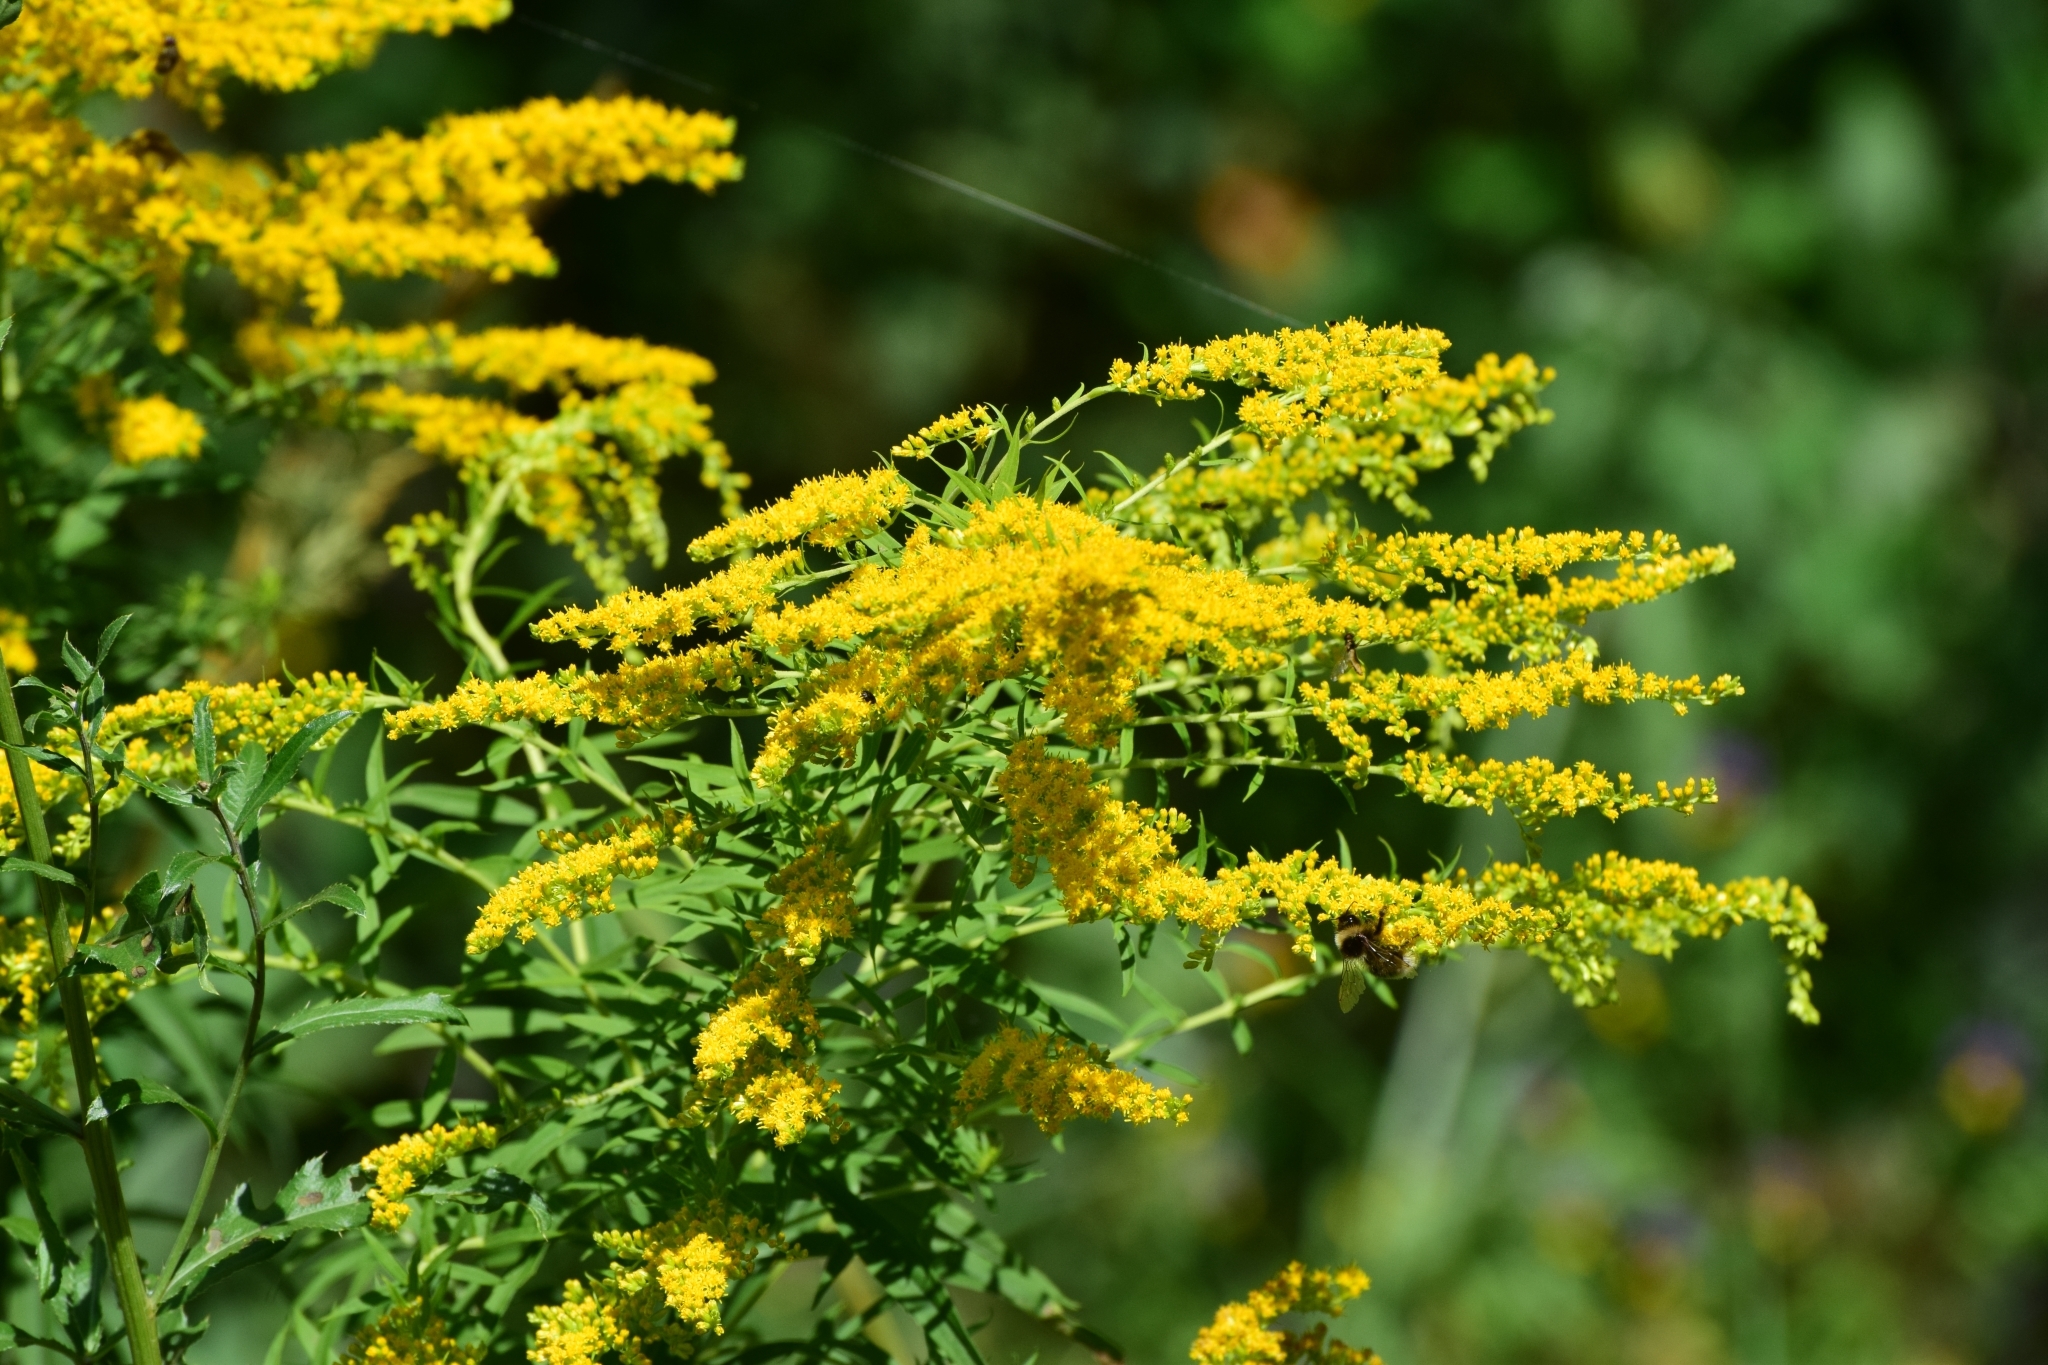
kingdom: Plantae
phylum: Tracheophyta
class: Magnoliopsida
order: Asterales
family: Asteraceae
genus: Solidago
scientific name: Solidago canadensis
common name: Canada goldenrod
